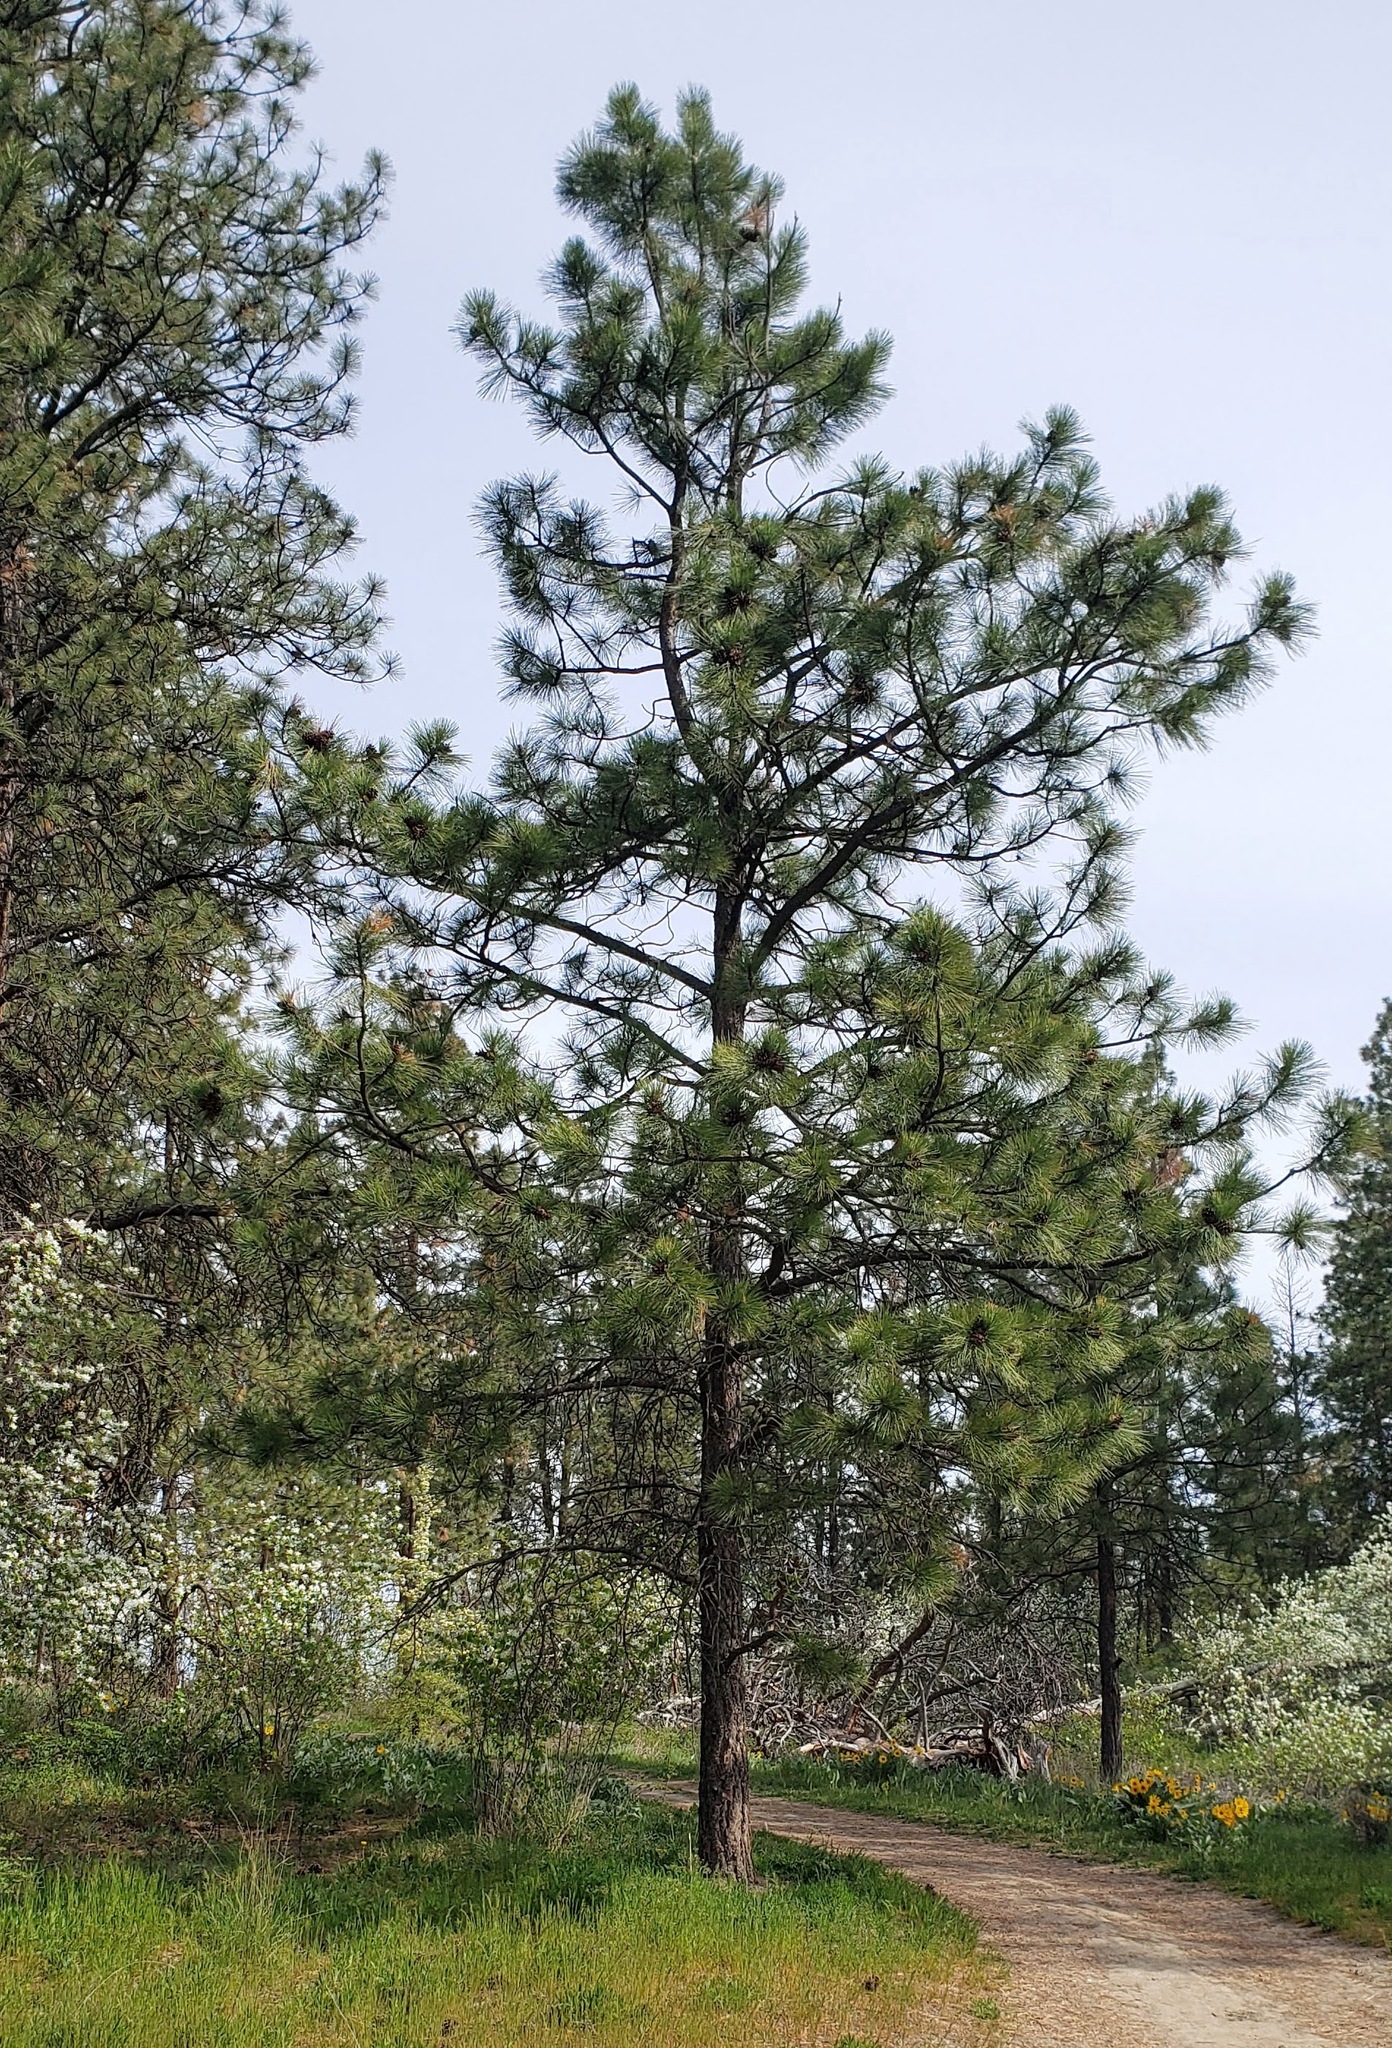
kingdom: Plantae
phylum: Tracheophyta
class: Pinopsida
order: Pinales
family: Pinaceae
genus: Pinus
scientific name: Pinus ponderosa
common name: Western yellow-pine
